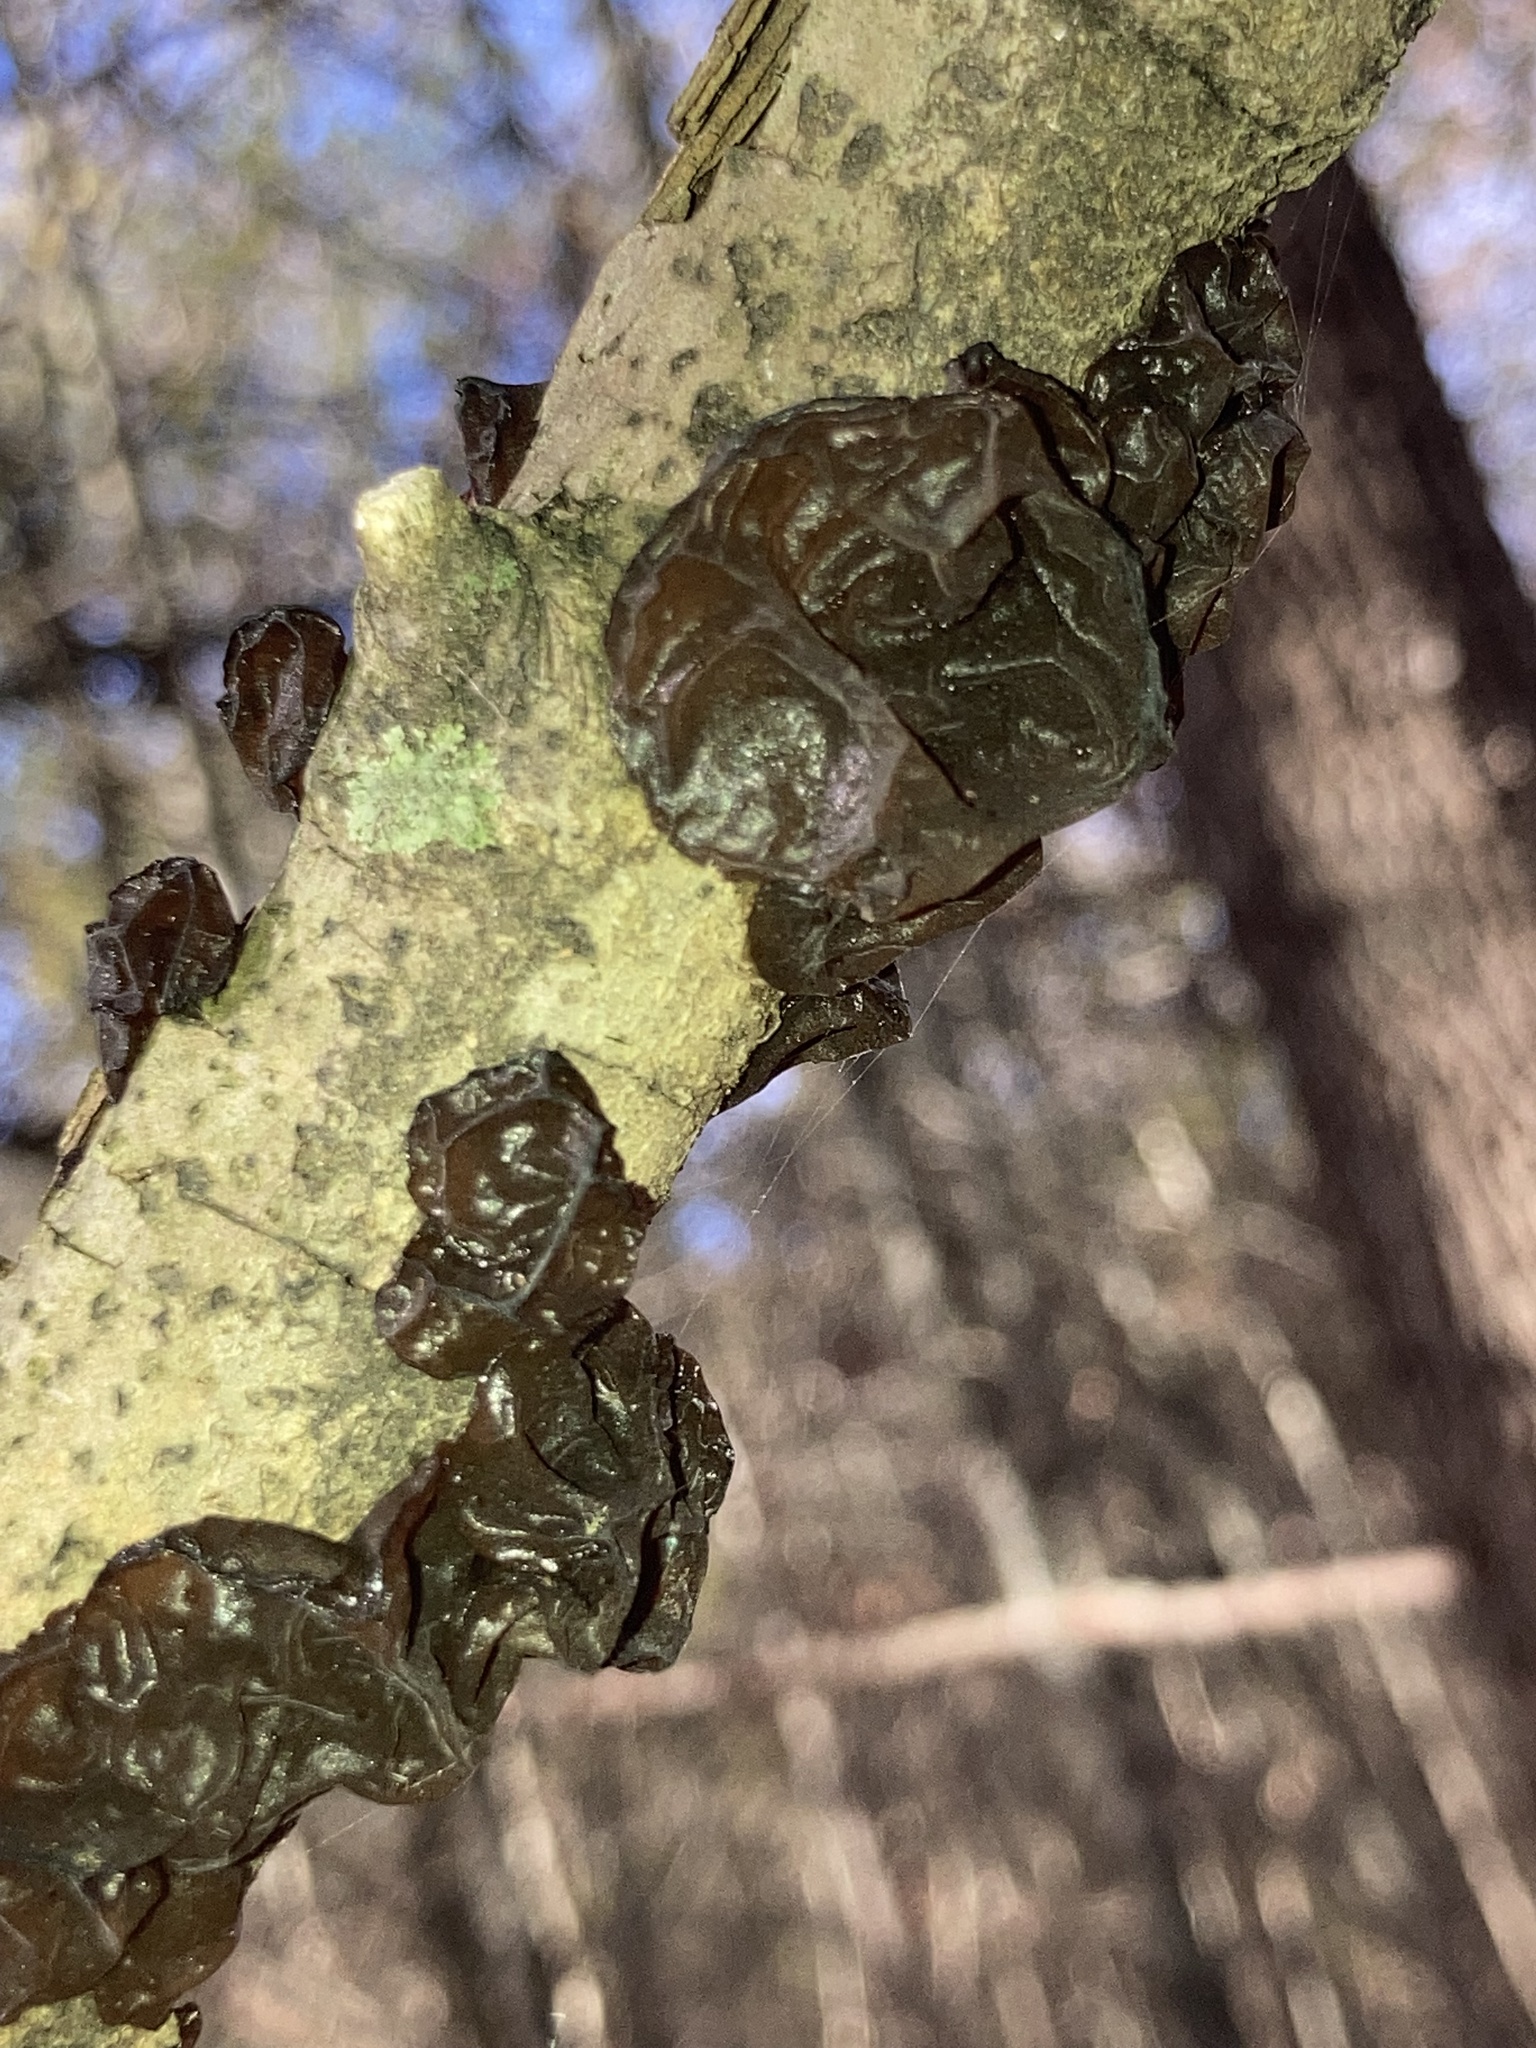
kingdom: Fungi
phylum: Basidiomycota
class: Agaricomycetes
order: Auriculariales
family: Auriculariaceae
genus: Exidia
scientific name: Exidia
